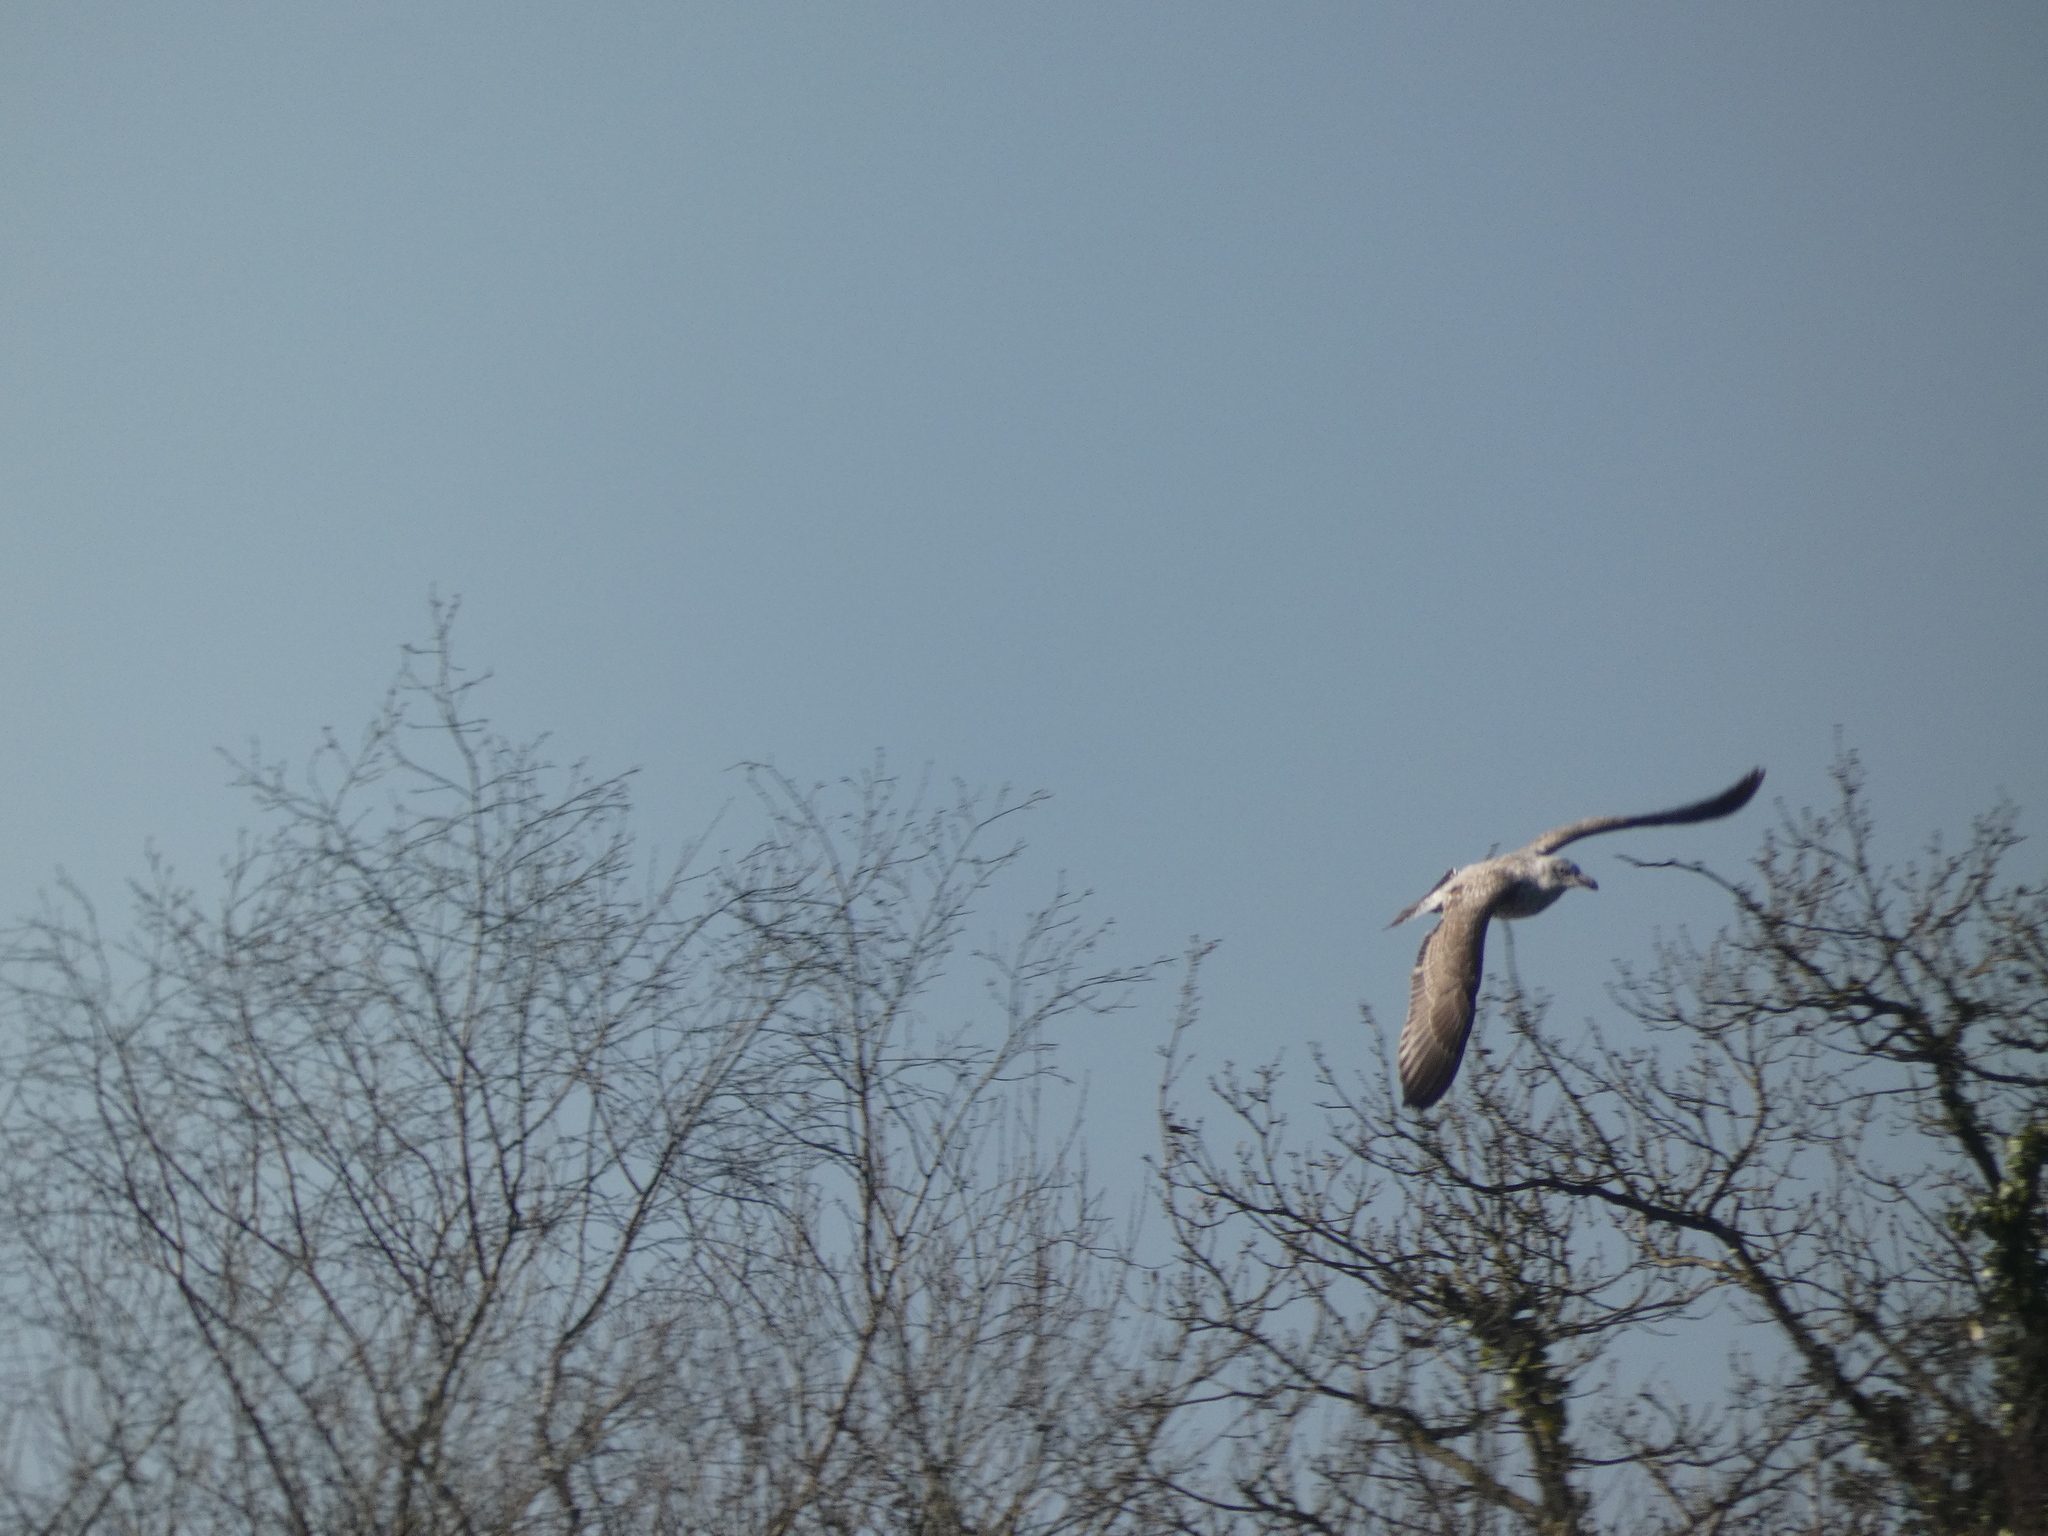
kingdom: Animalia
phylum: Chordata
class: Aves
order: Charadriiformes
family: Laridae
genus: Larus
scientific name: Larus argentatus
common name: Herring gull
